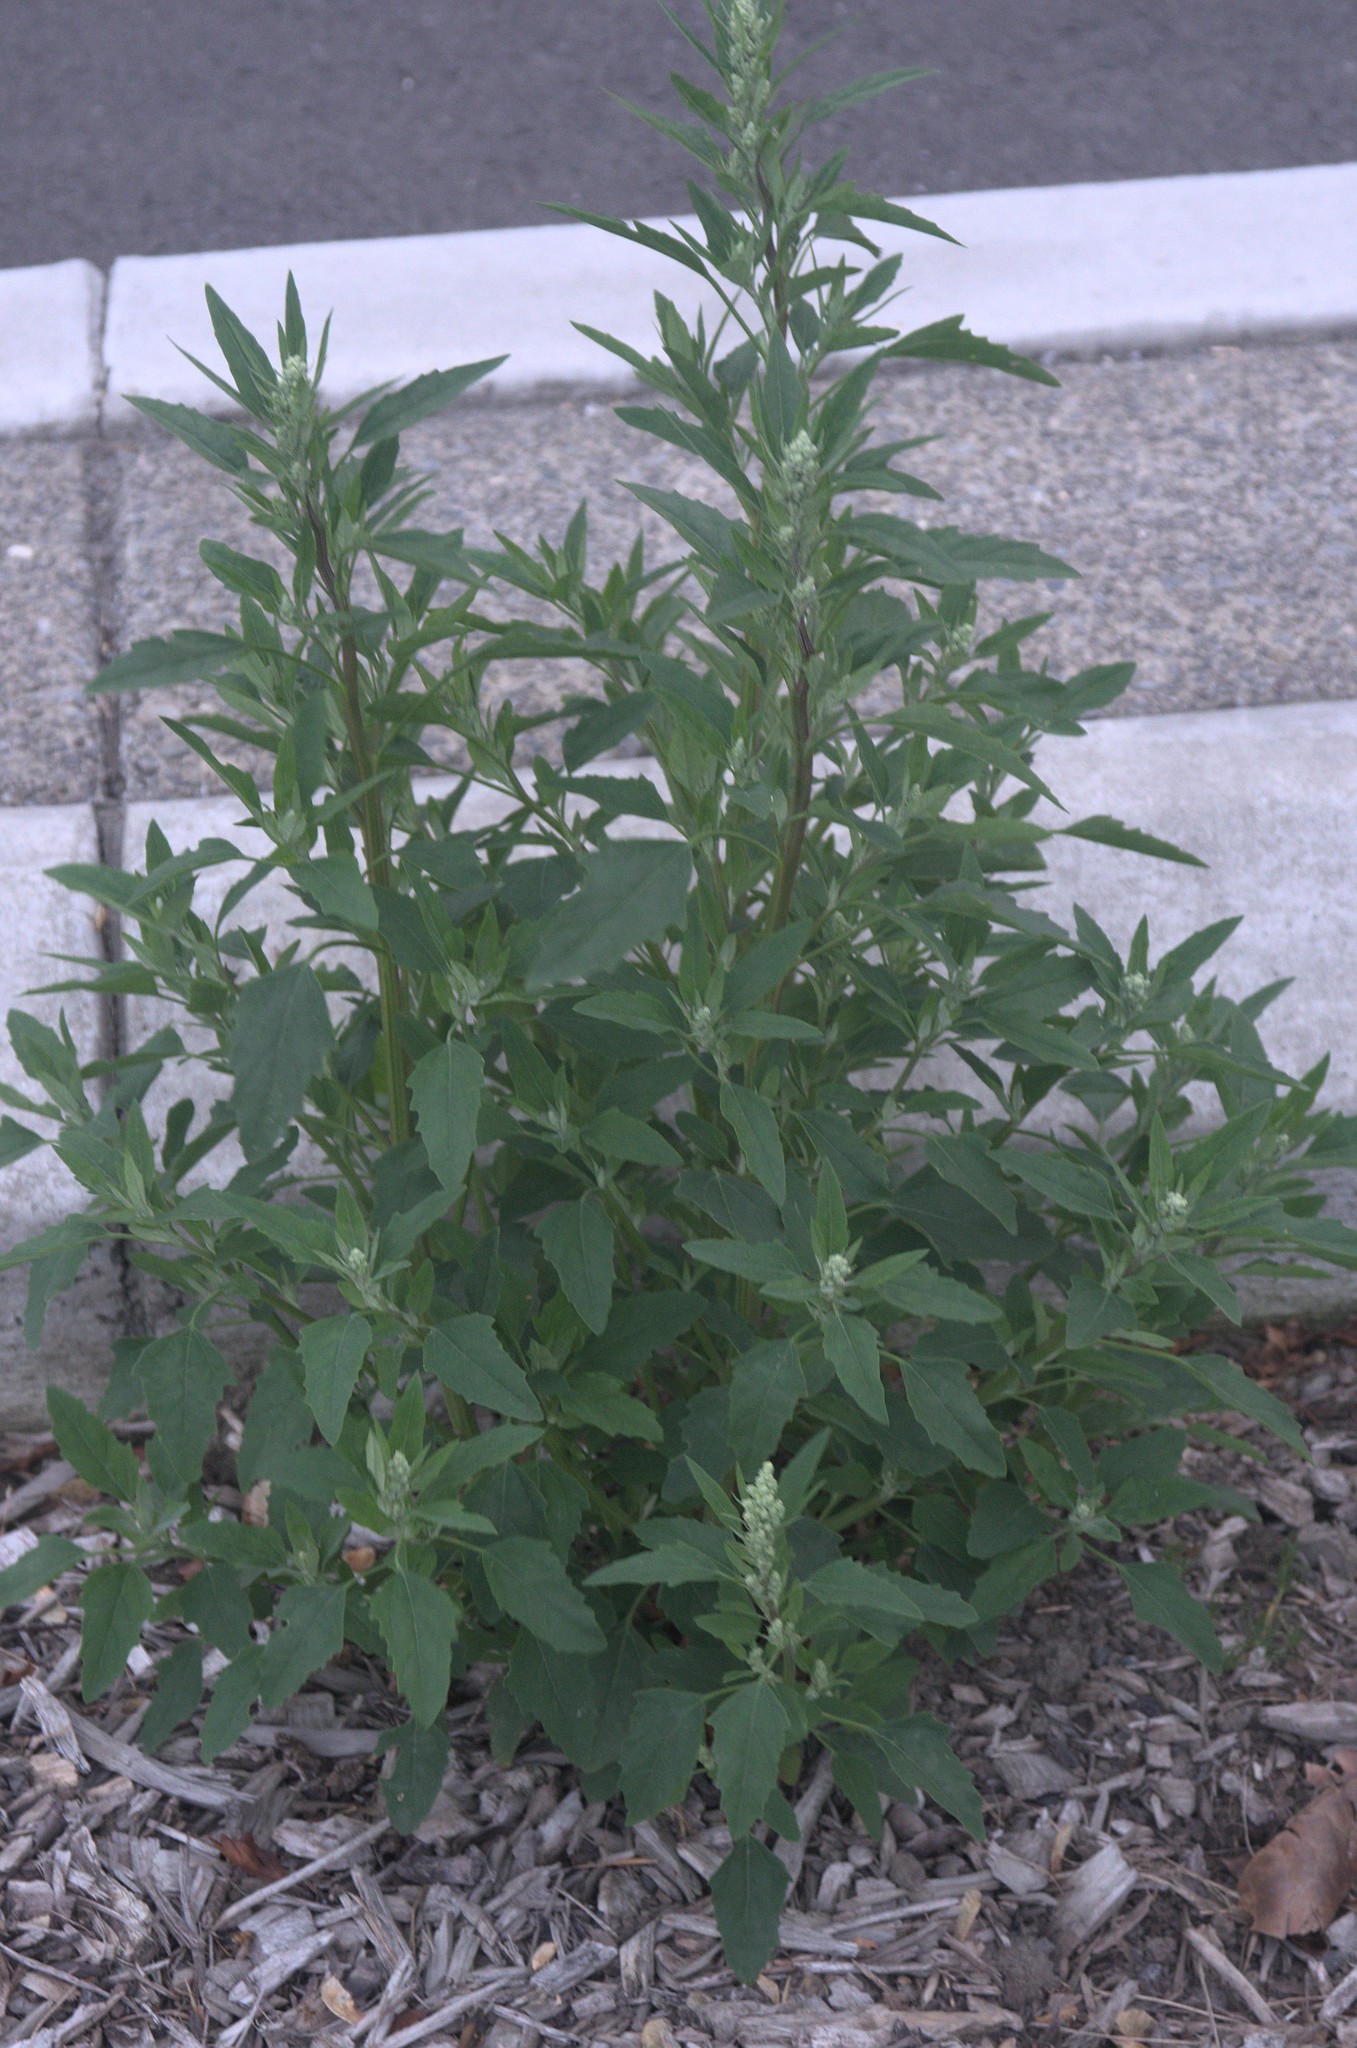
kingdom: Plantae
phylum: Tracheophyta
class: Magnoliopsida
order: Caryophyllales
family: Amaranthaceae
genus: Chenopodium
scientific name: Chenopodium album
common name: Fat-hen
